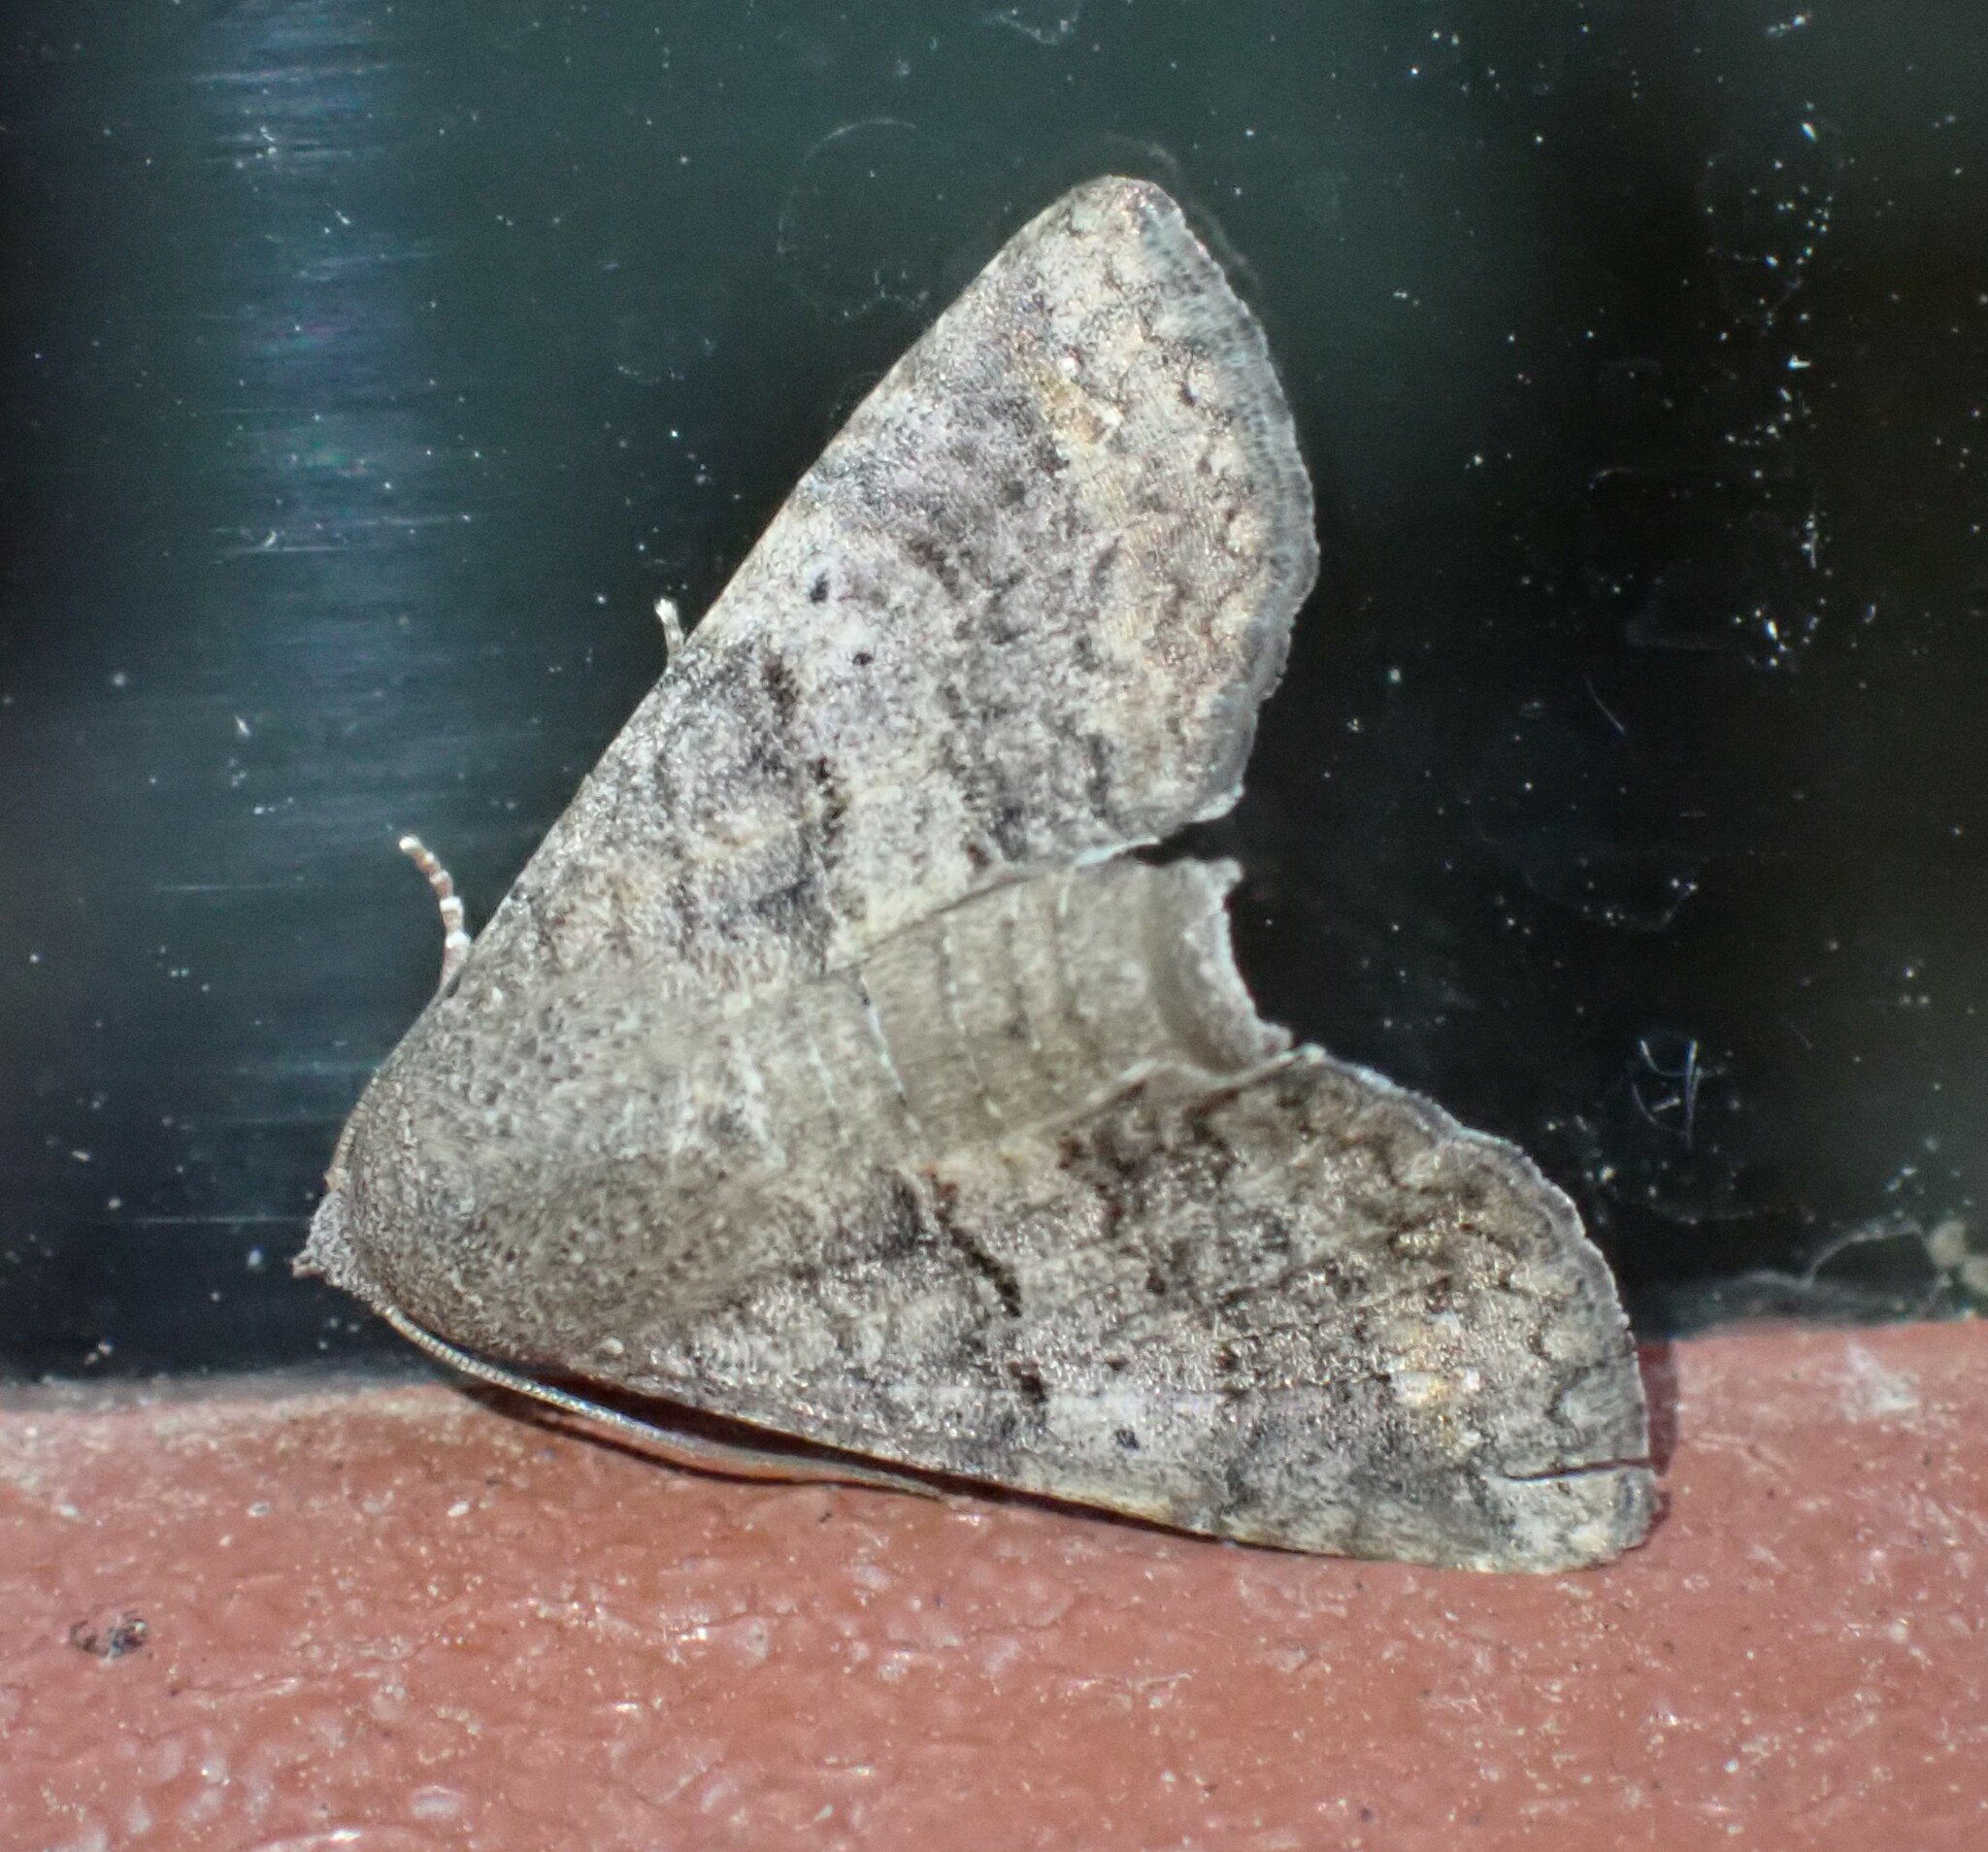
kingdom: Animalia
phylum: Arthropoda
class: Insecta
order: Lepidoptera
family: Euteliidae
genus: Eutelia
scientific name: Eutelia polychorda
